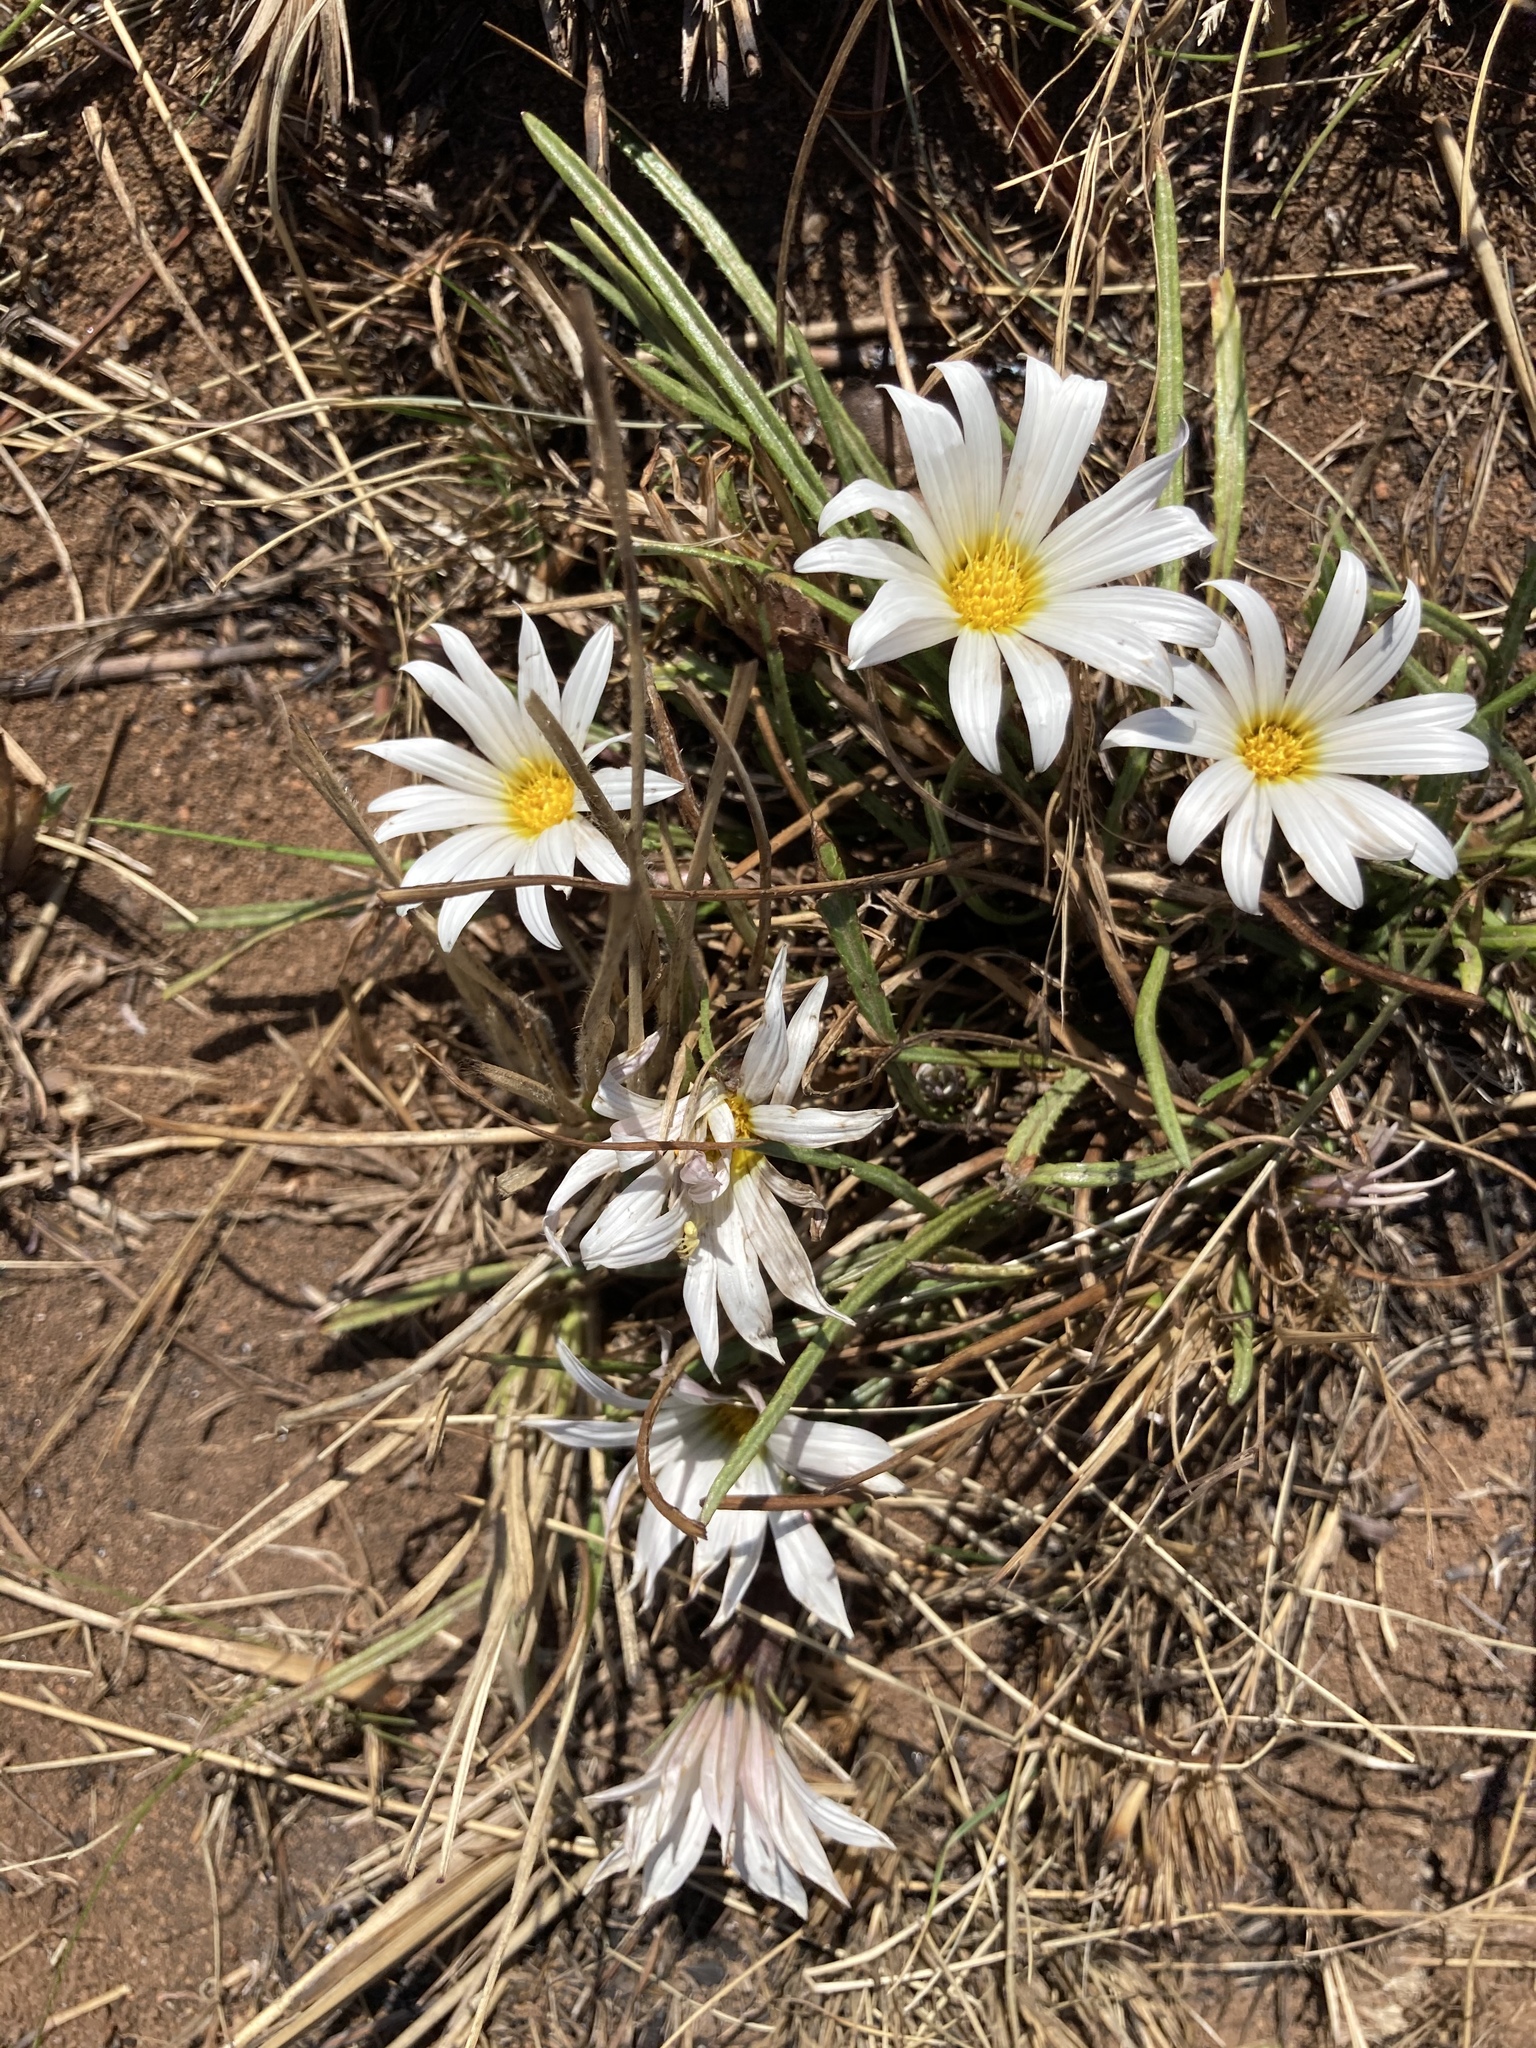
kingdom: Plantae
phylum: Tracheophyta
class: Magnoliopsida
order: Asterales
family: Asteraceae
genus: Gazania
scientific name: Gazania krebsiana
